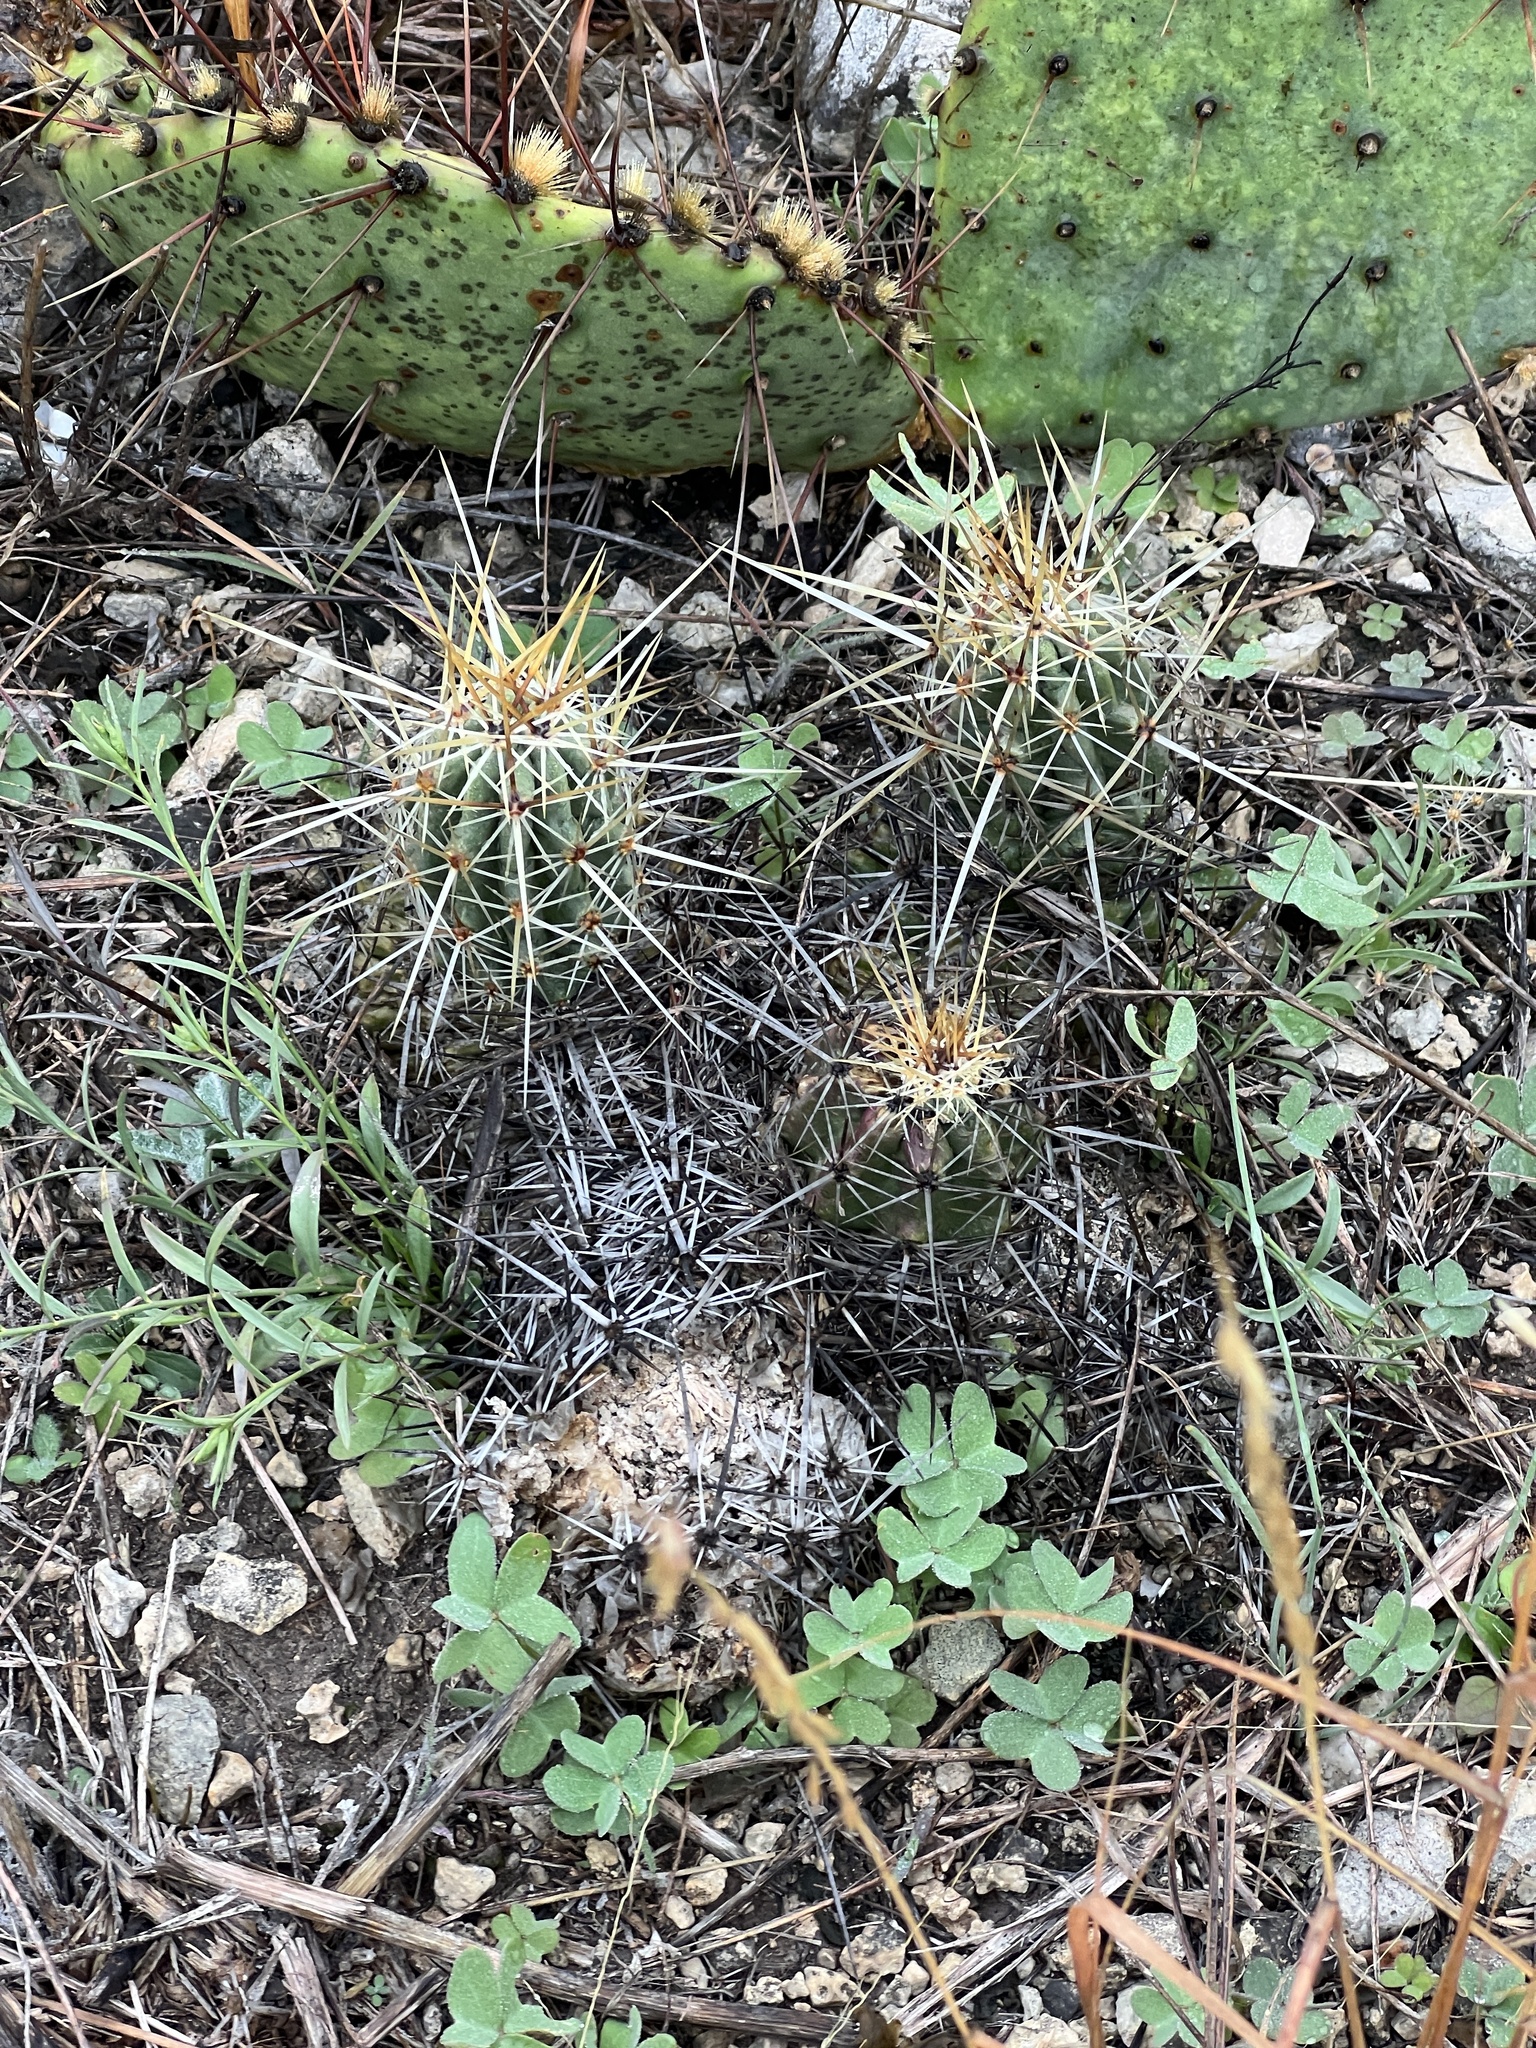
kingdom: Plantae
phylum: Tracheophyta
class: Magnoliopsida
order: Caryophyllales
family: Cactaceae
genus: Echinocereus
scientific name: Echinocereus enneacanthus
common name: Pitaya
